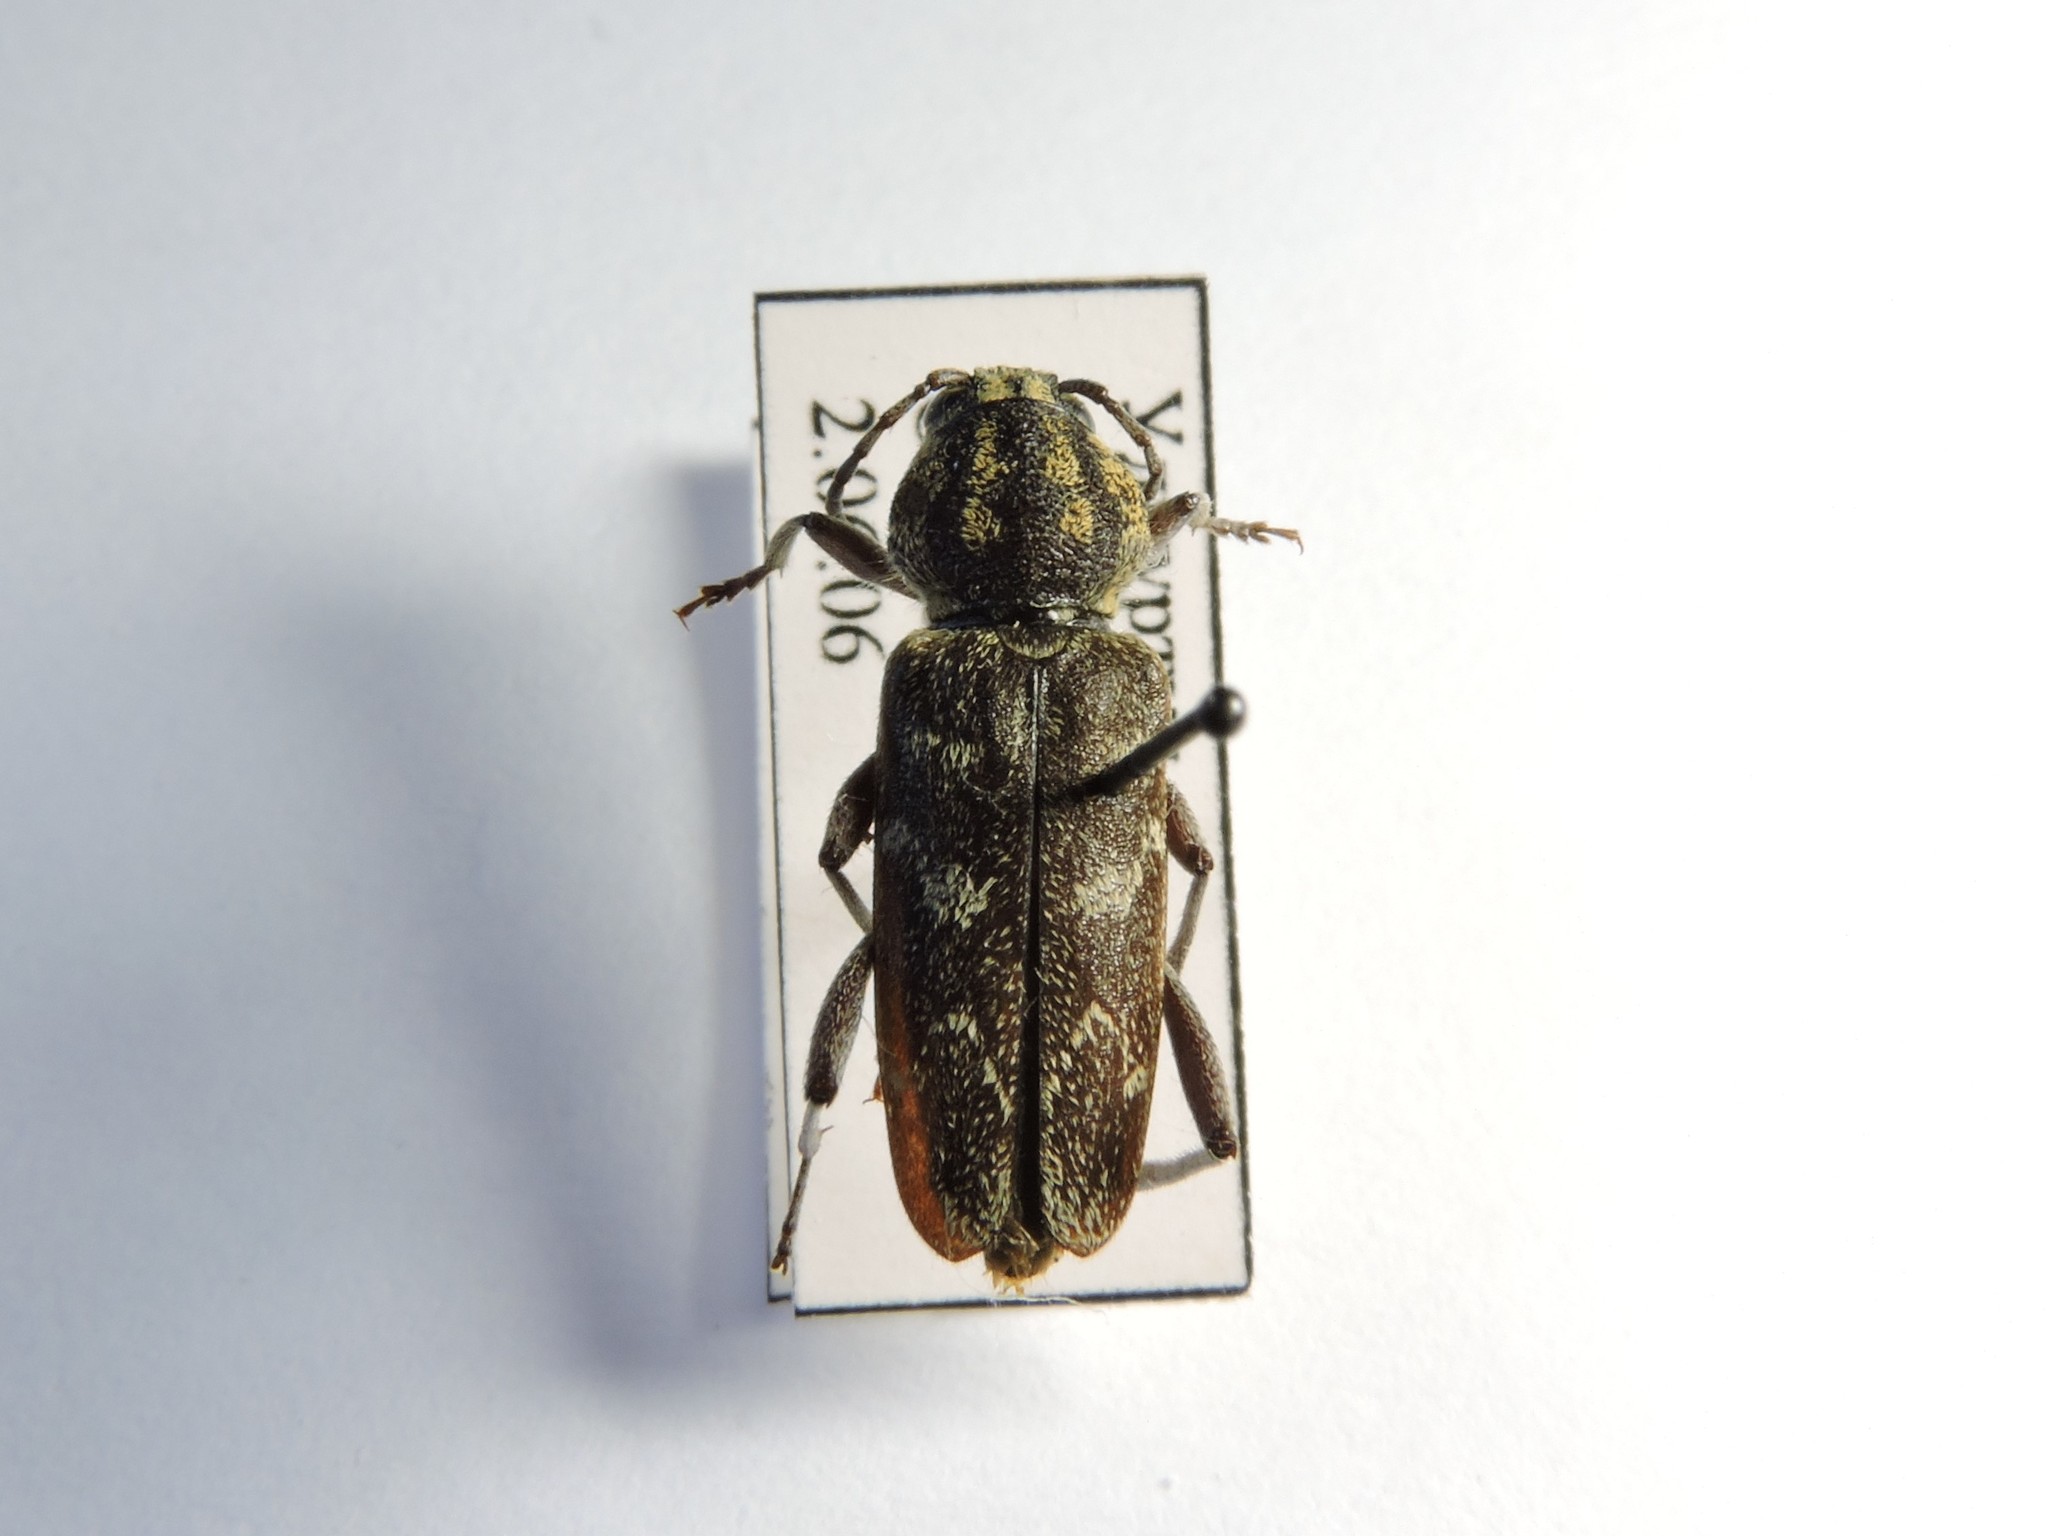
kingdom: Animalia
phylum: Arthropoda
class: Insecta
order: Coleoptera
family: Cerambycidae
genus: Xylotrechus
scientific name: Xylotrechus rusticus
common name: Grey tiger long-horned beetle
